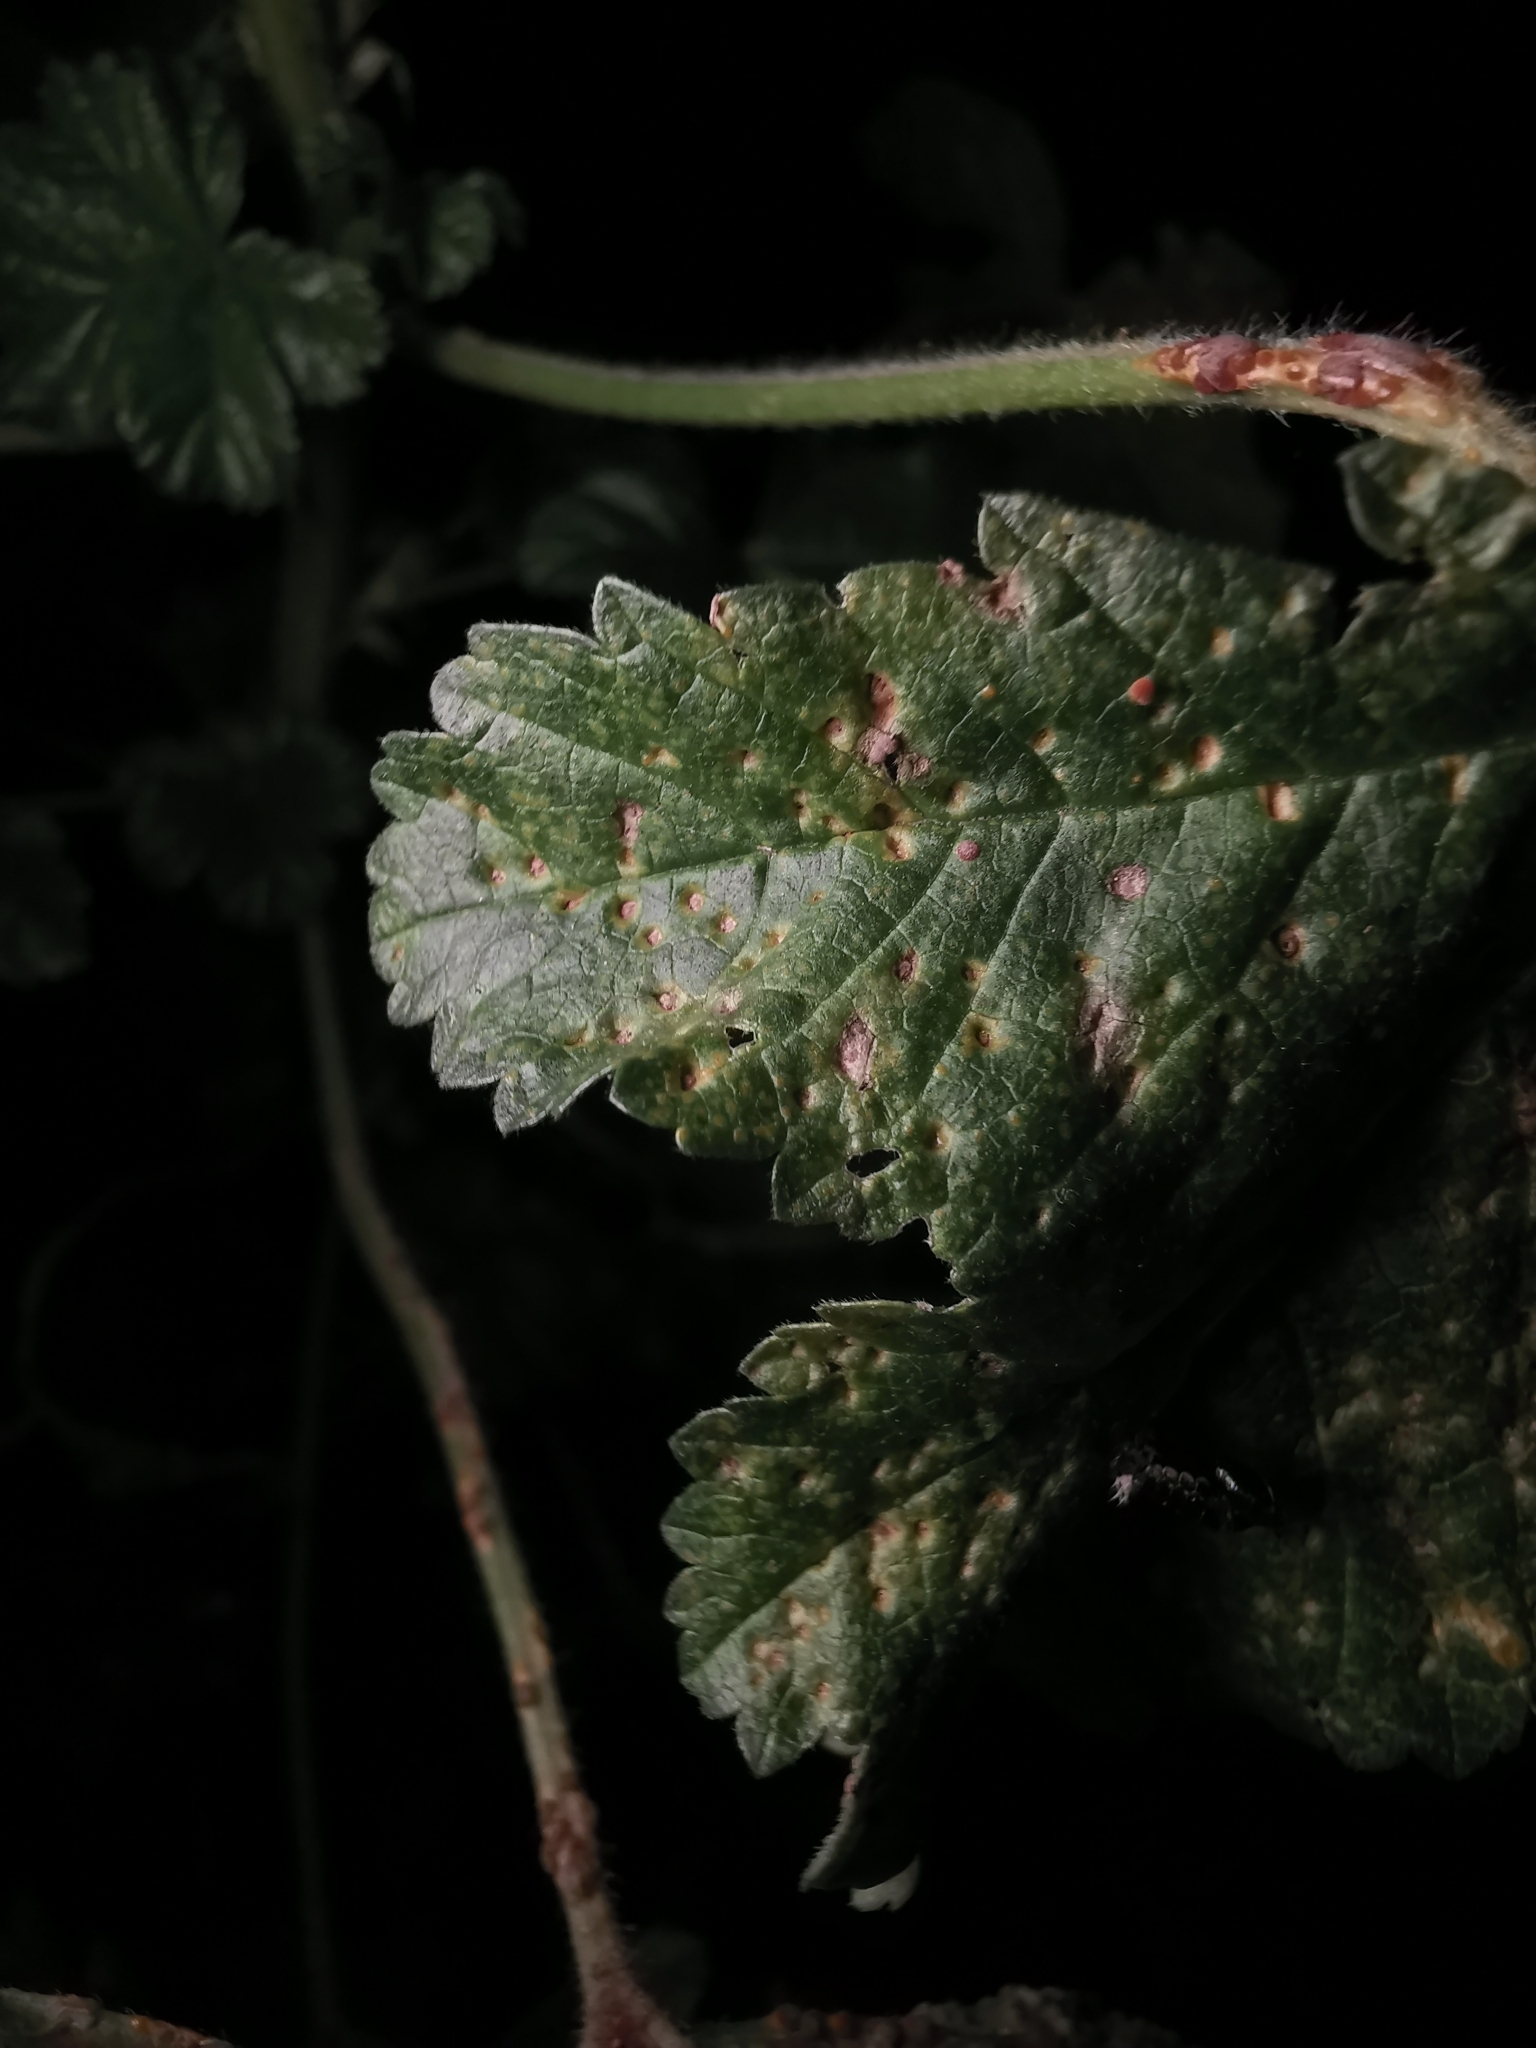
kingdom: Fungi
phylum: Basidiomycota
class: Pucciniomycetes
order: Pucciniales
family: Pucciniaceae
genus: Puccinia
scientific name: Puccinia malvacearum
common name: Hollyhock rust
